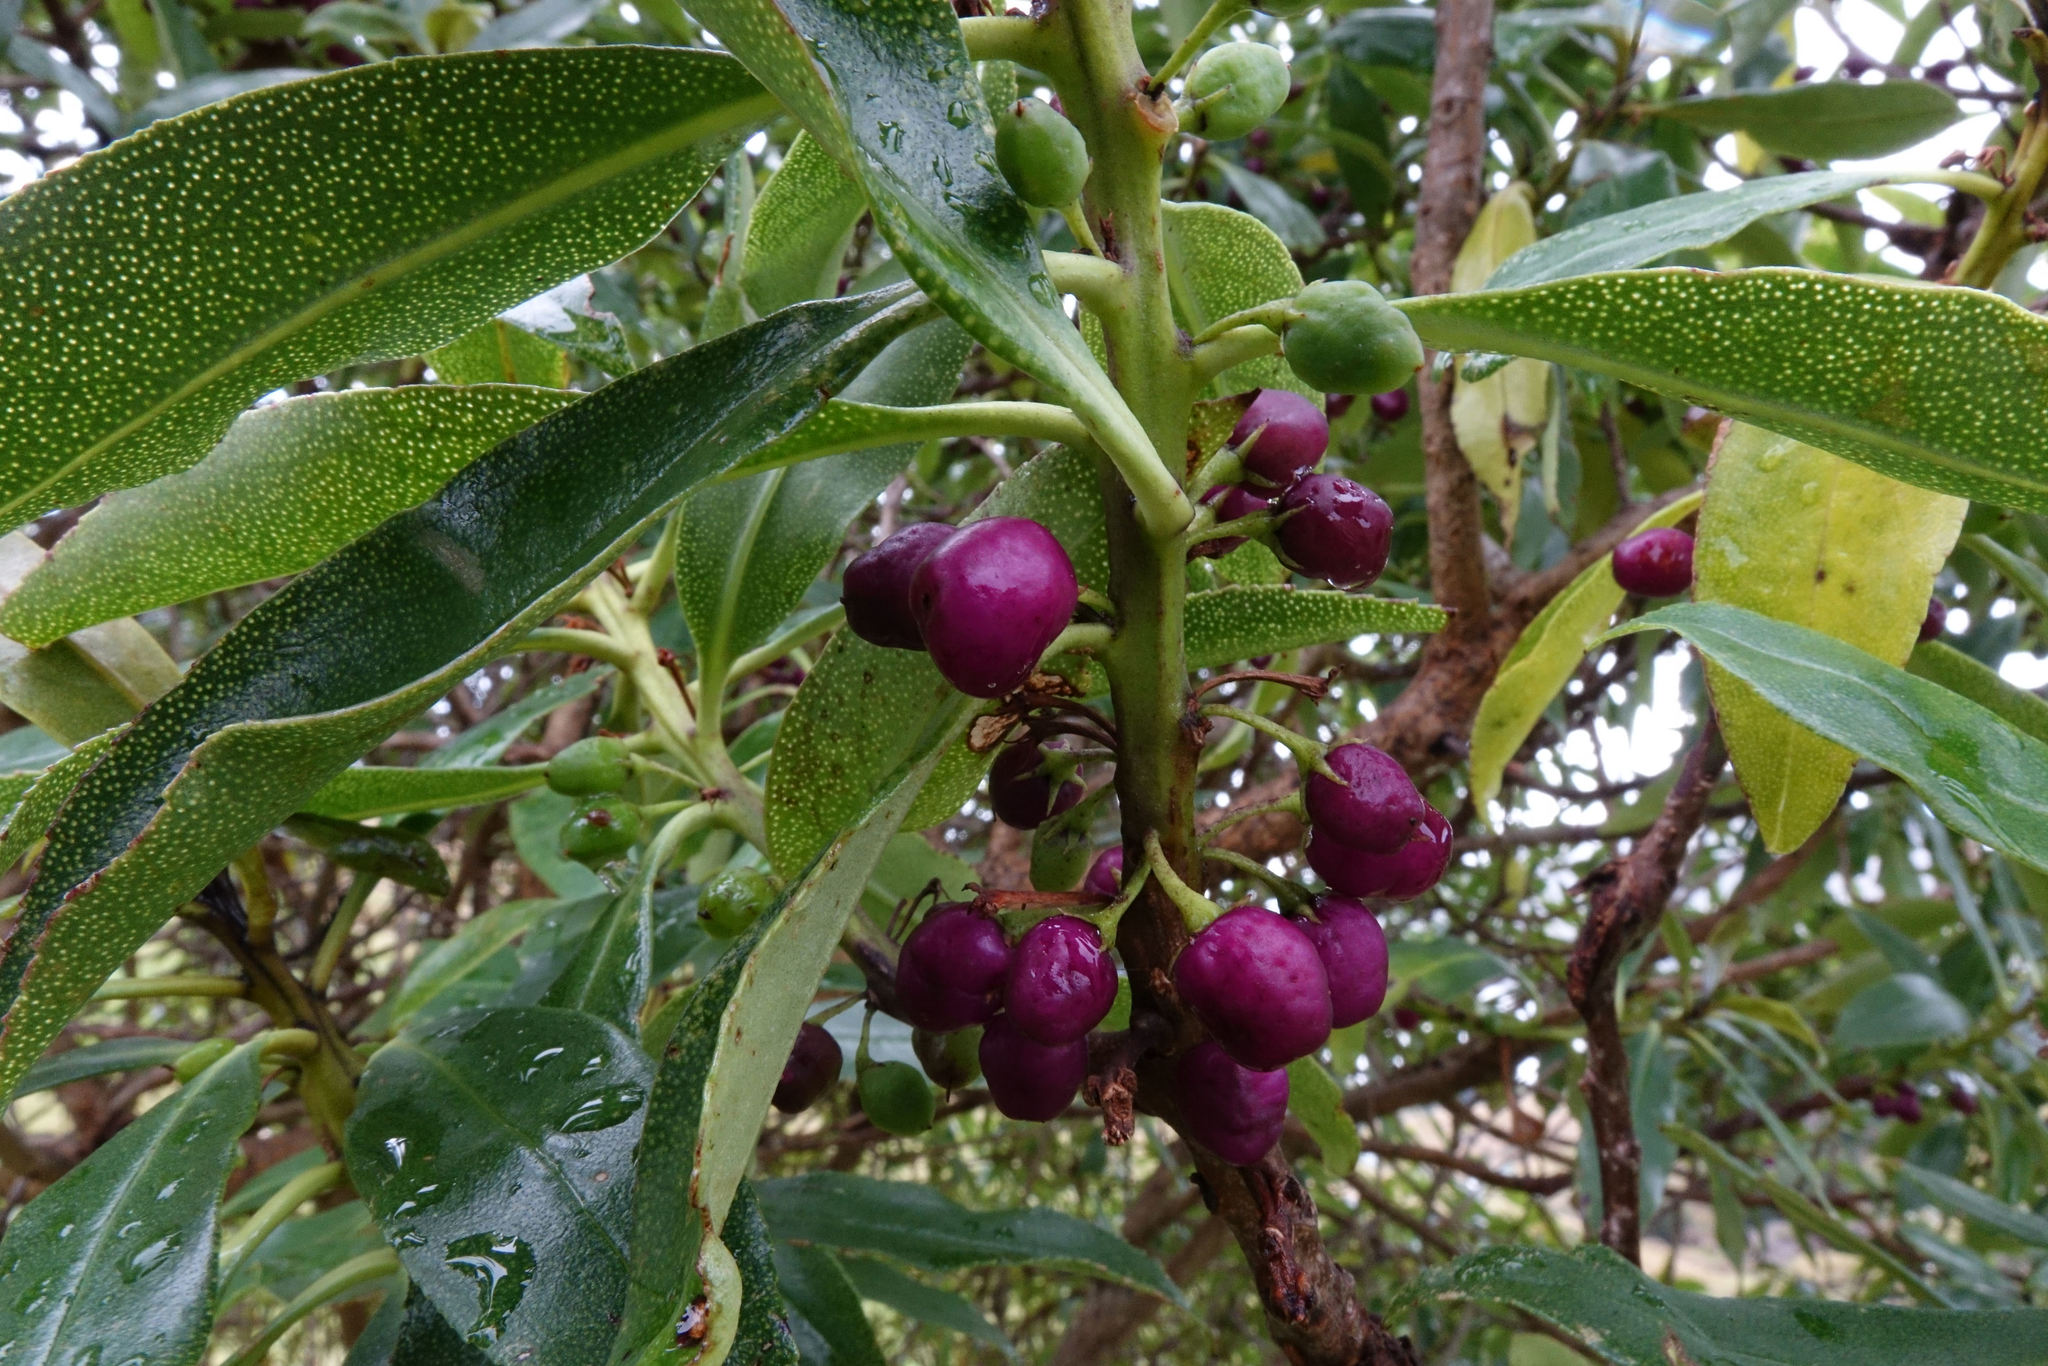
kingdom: Plantae
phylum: Tracheophyta
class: Magnoliopsida
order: Lamiales
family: Scrophulariaceae
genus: Myoporum
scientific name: Myoporum laetum
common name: Ngaio tree
